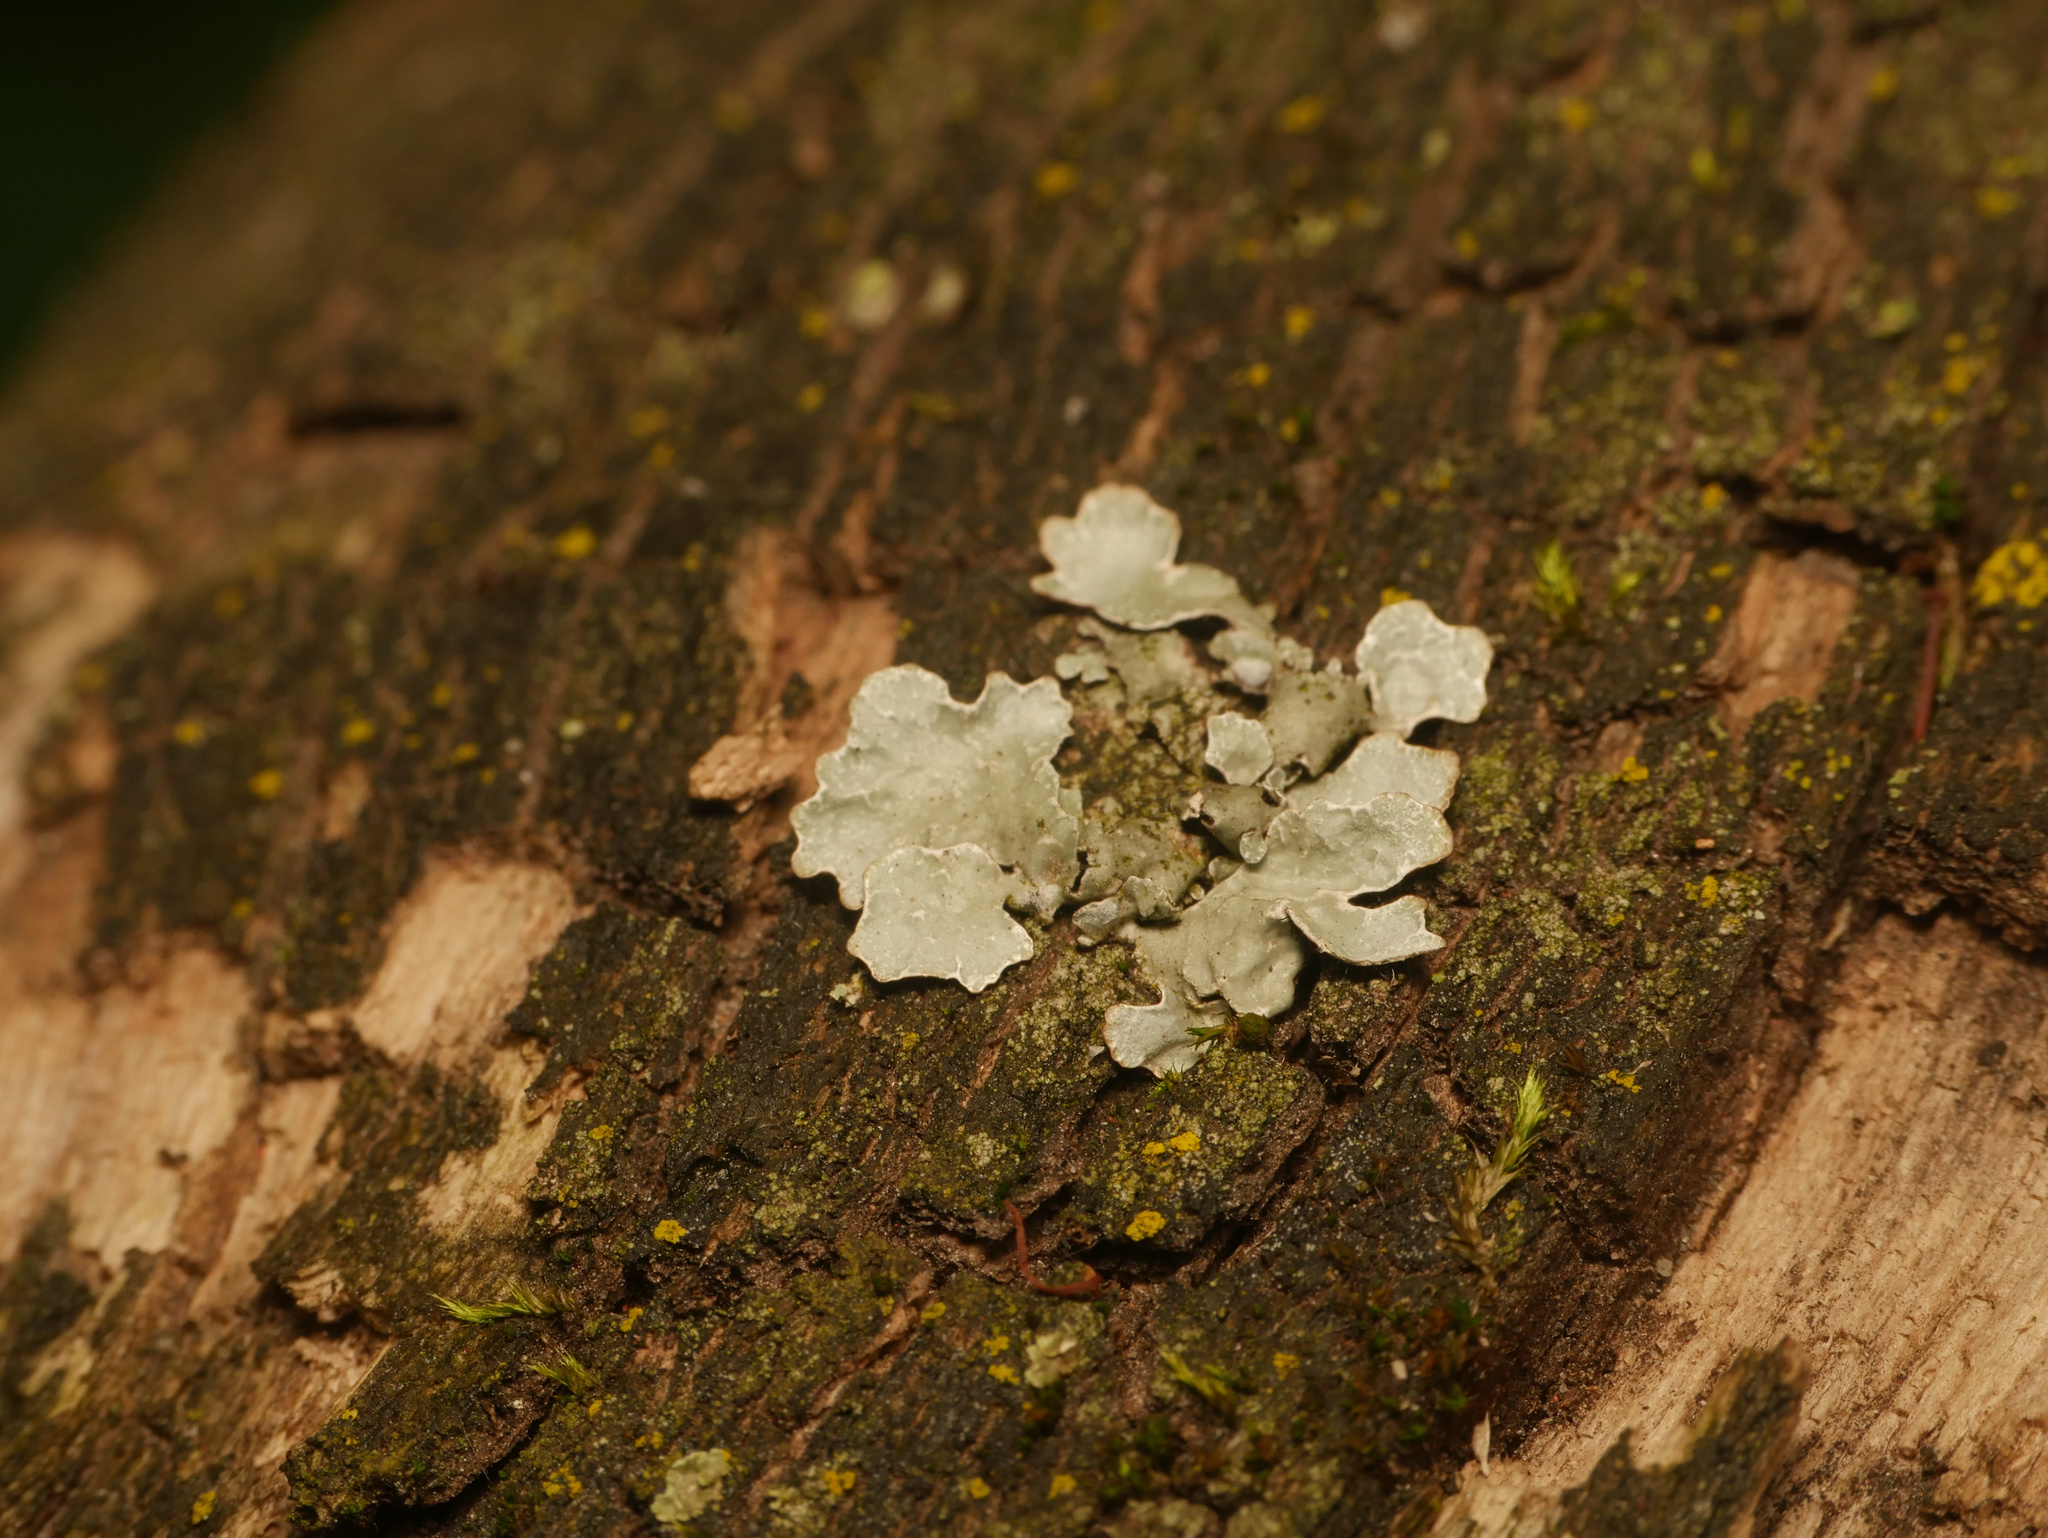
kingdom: Fungi
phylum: Ascomycota
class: Lecanoromycetes
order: Lecanorales
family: Parmeliaceae
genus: Parmelia
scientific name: Parmelia sulcata
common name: Netted shield lichen
